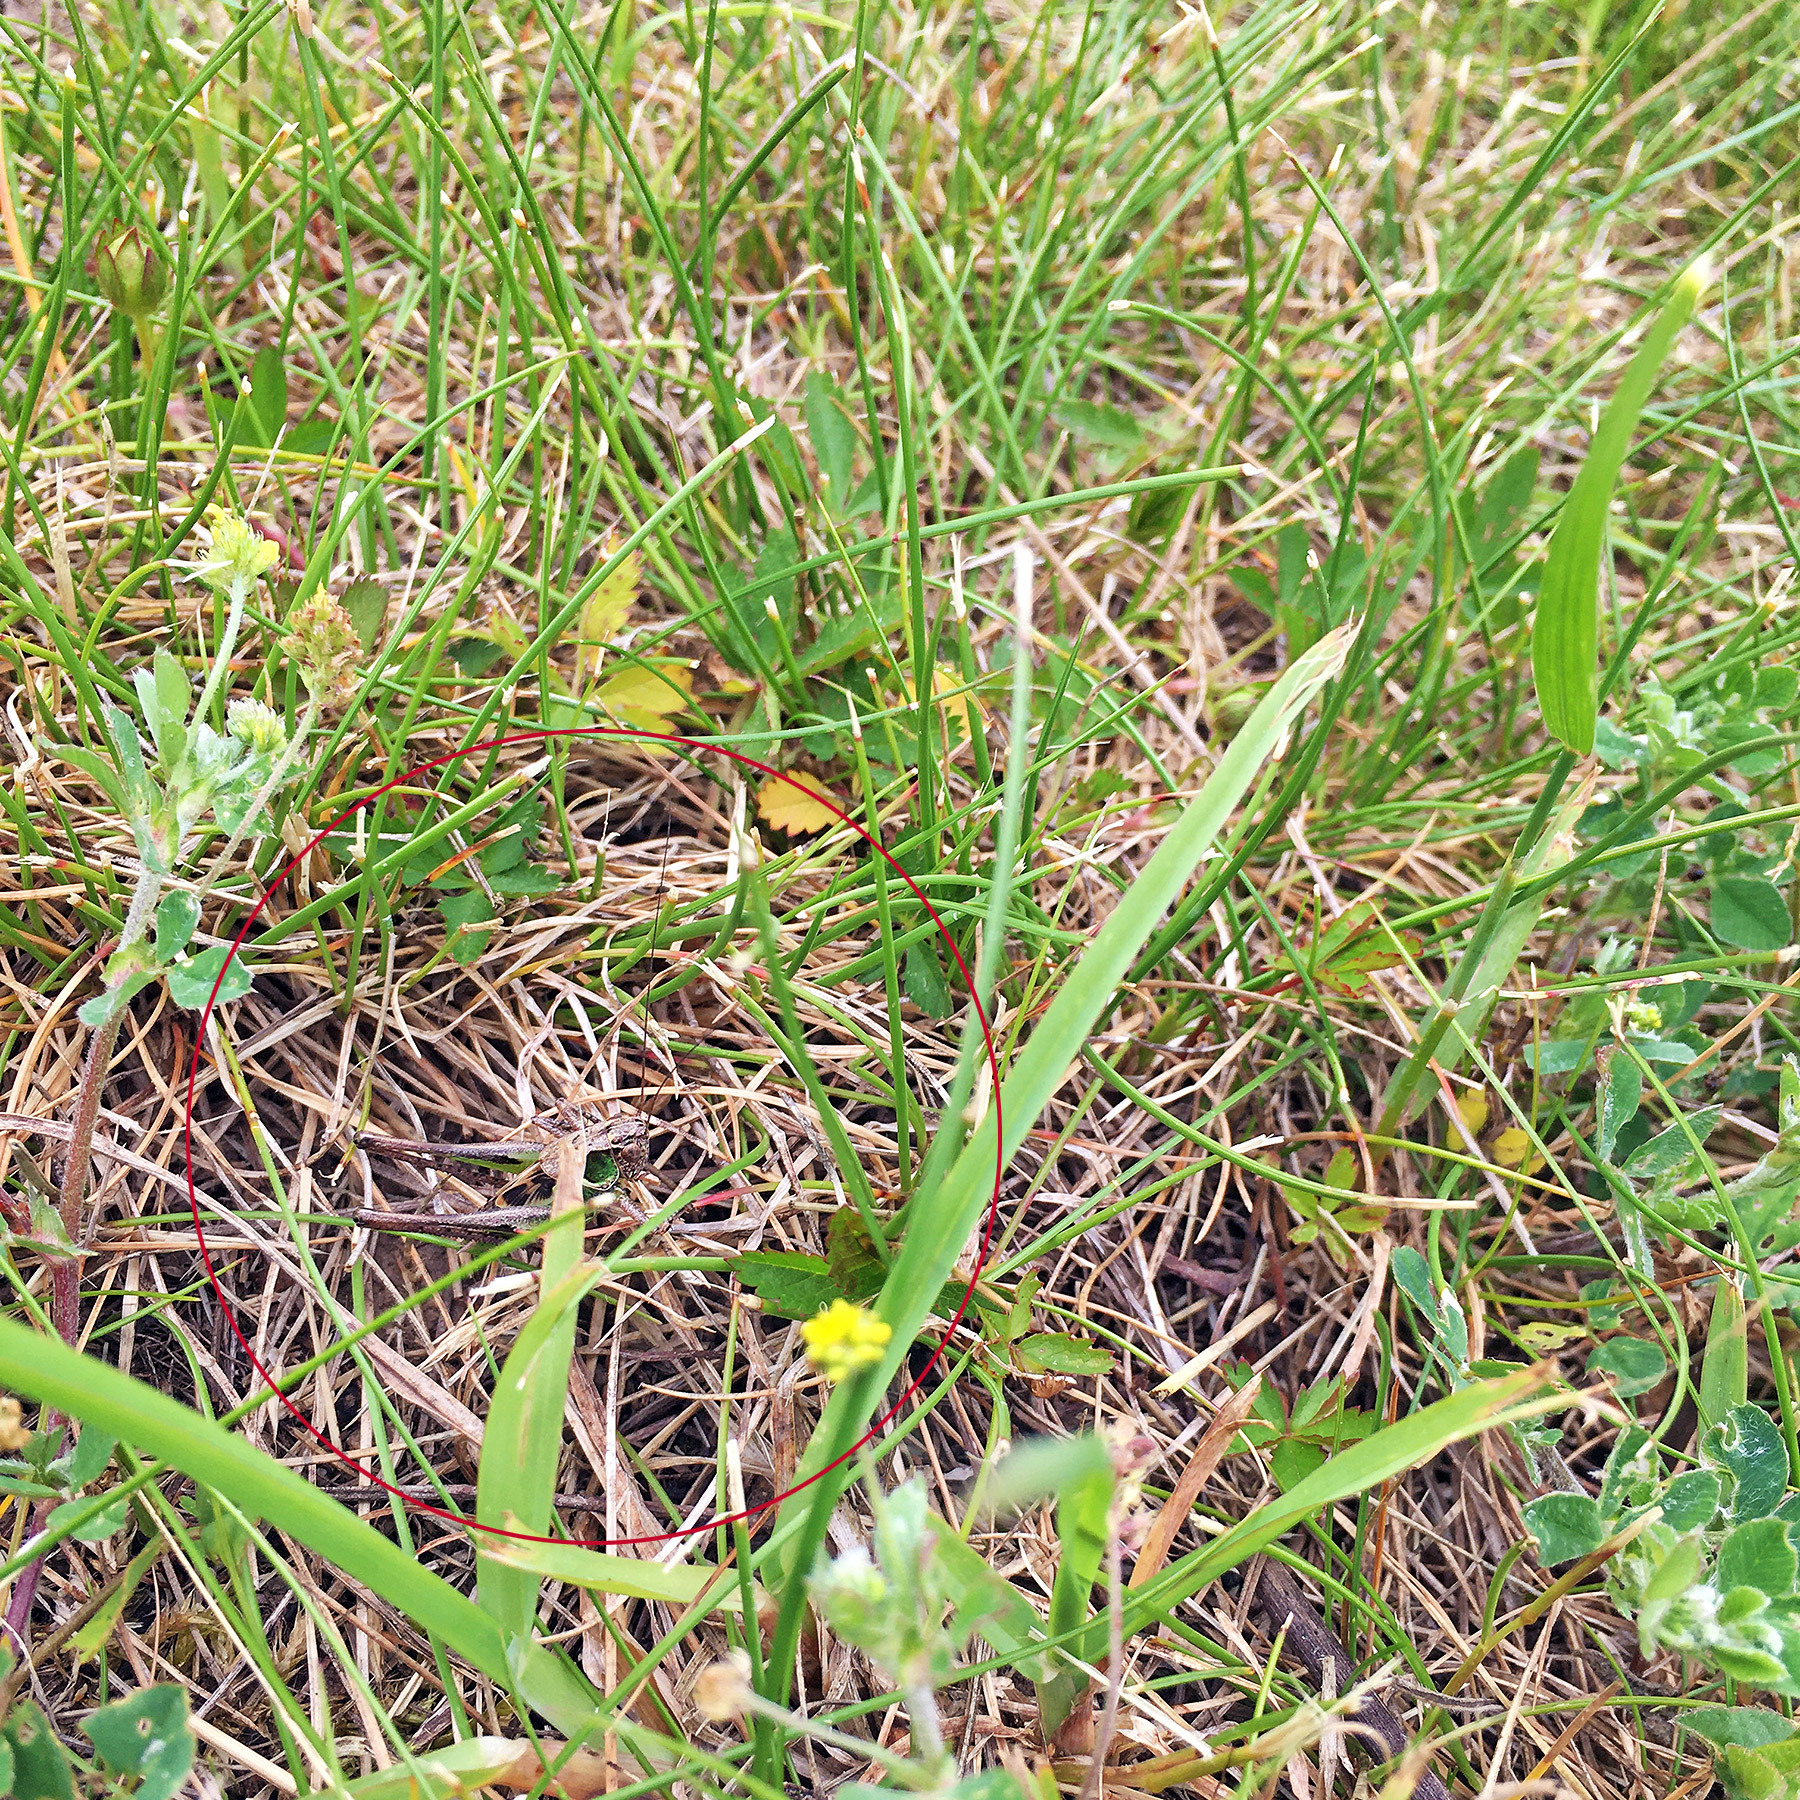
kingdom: Animalia
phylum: Arthropoda
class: Insecta
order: Orthoptera
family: Tettigoniidae
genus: Platycleis
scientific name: Platycleis albopunctata
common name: Grey bush-cricket
